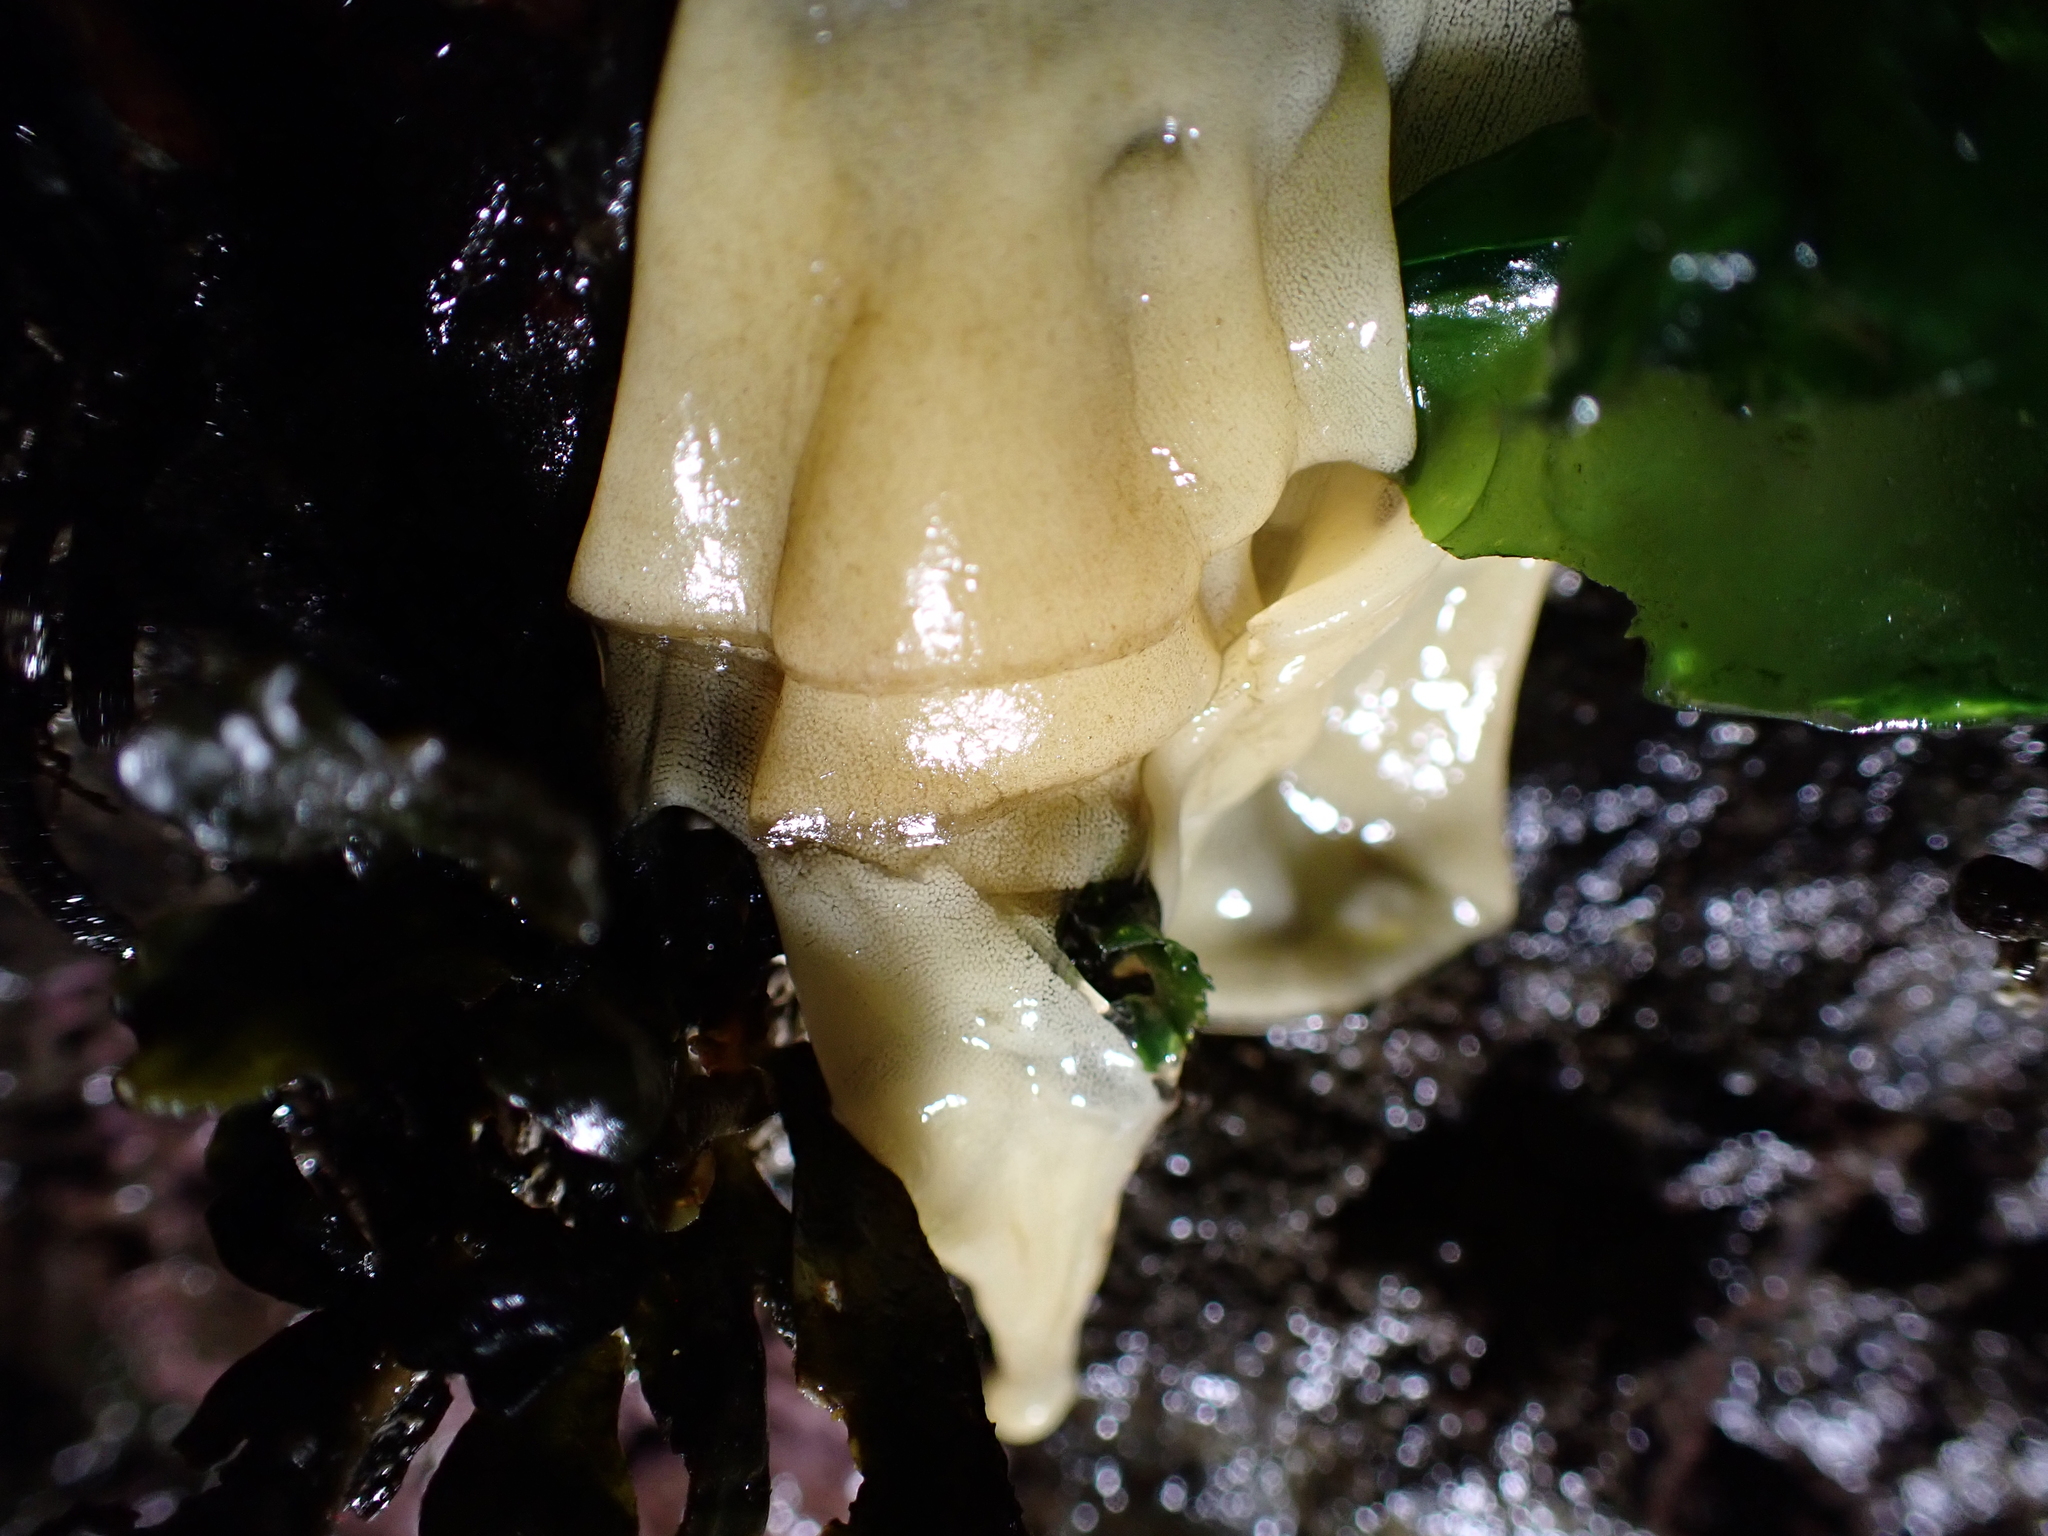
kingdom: Animalia
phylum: Mollusca
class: Gastropoda
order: Nudibranchia
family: Onchidorididae
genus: Onchidoris
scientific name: Onchidoris bilamellata
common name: Barnacle-eating onchidoris
